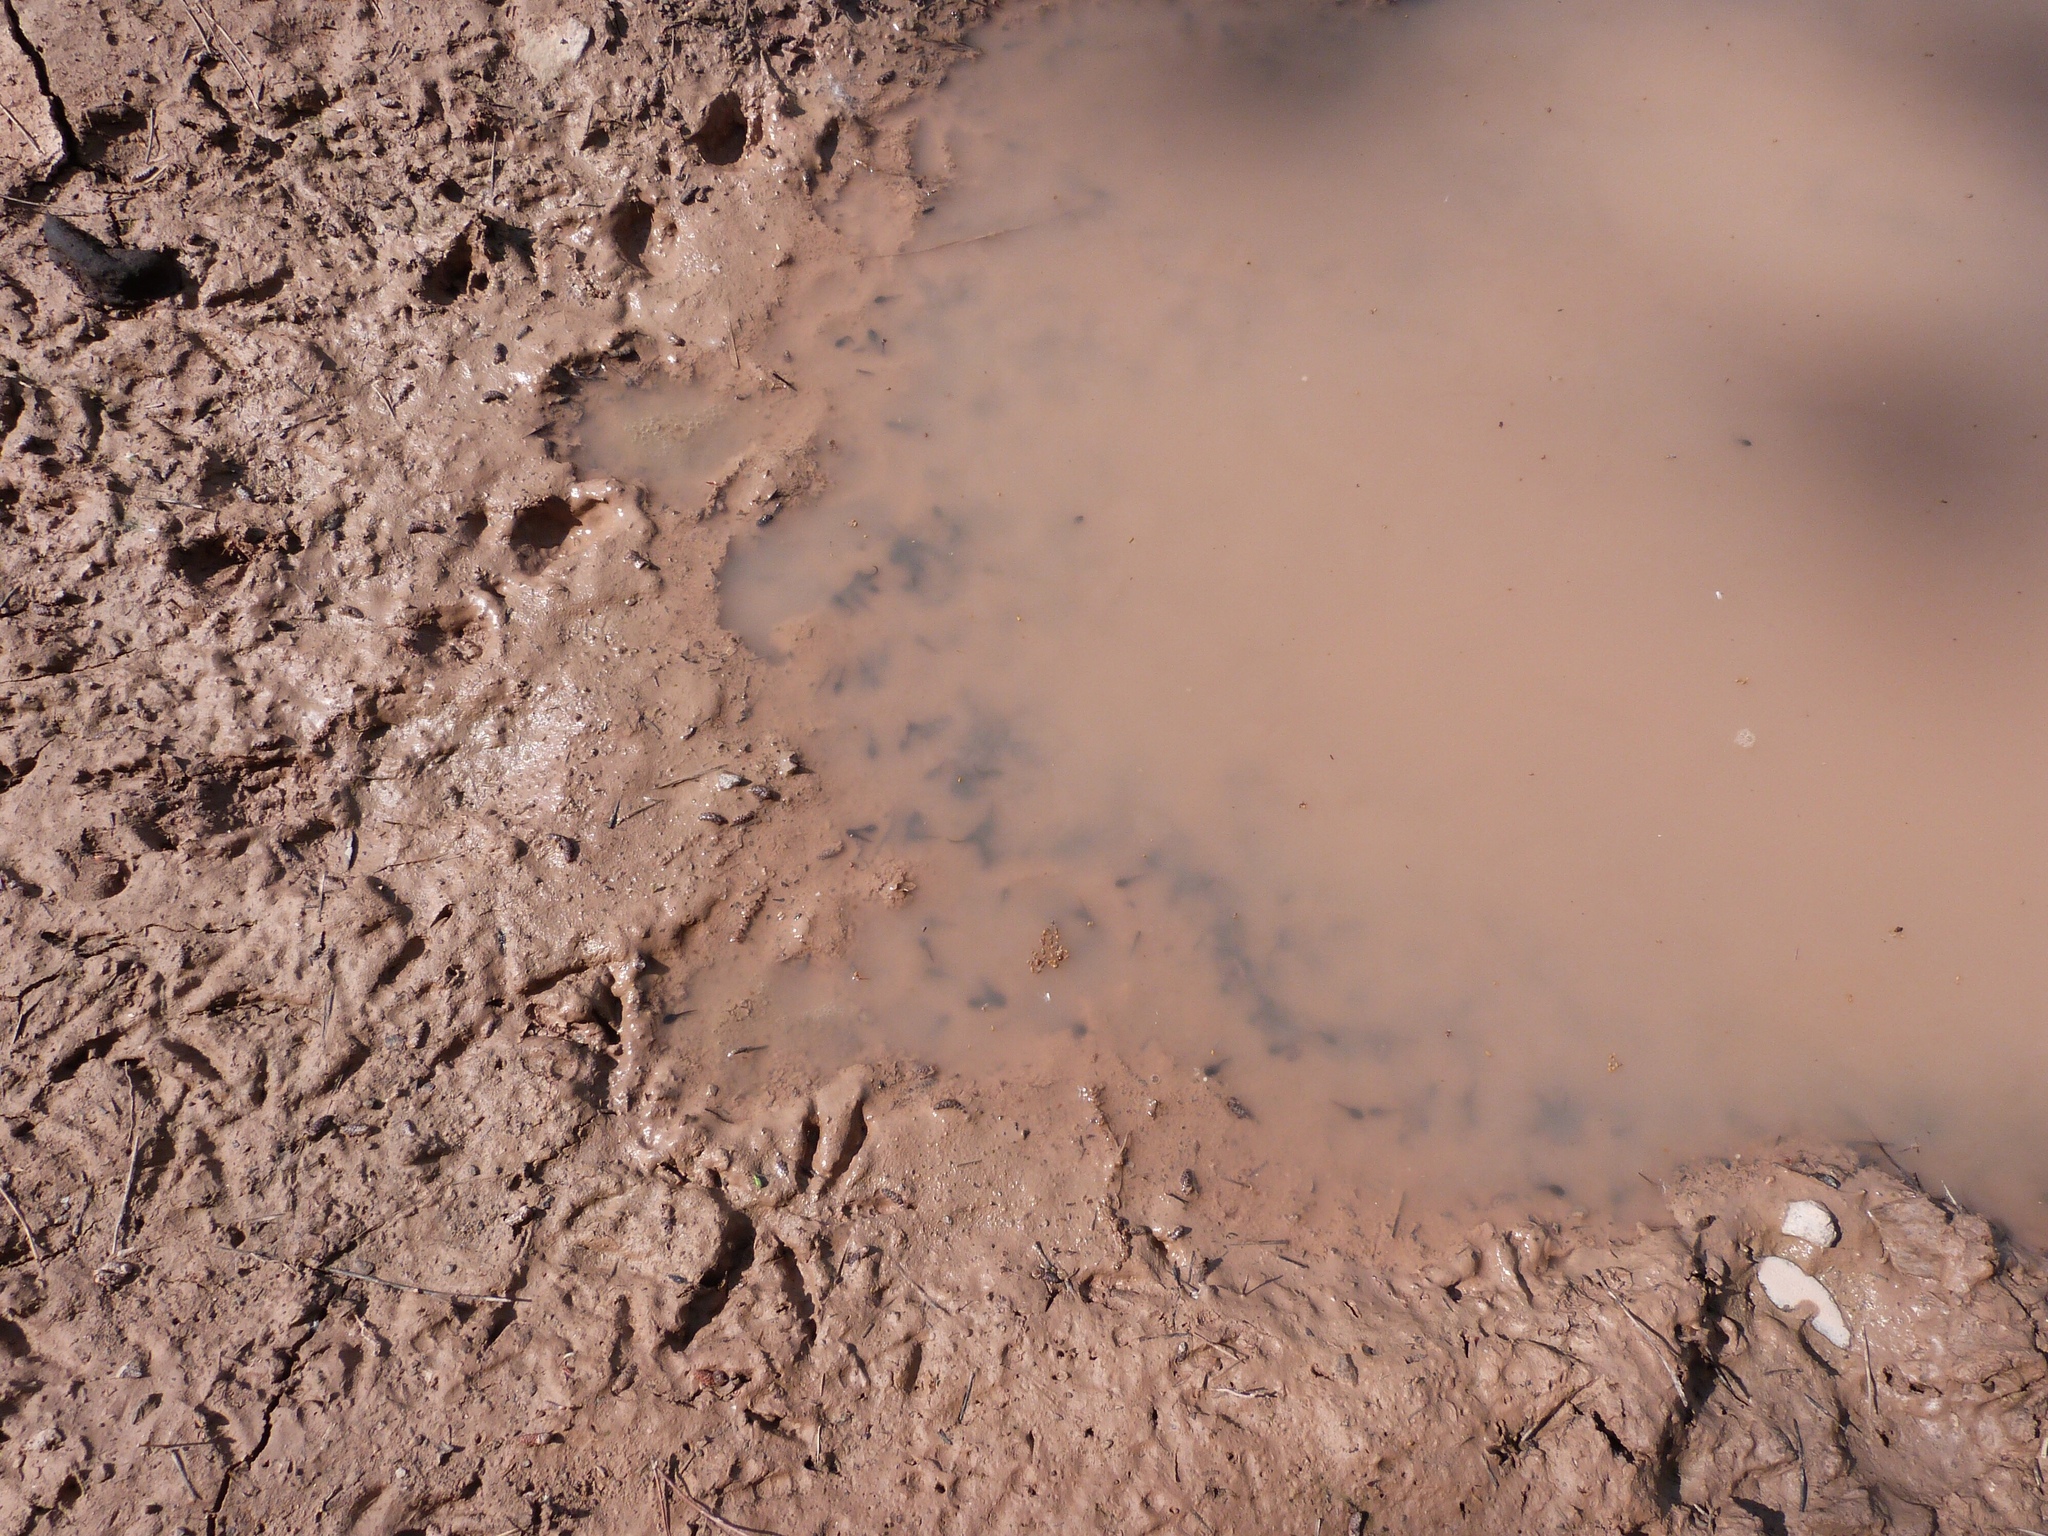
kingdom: Animalia
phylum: Chordata
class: Amphibia
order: Anura
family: Bufonidae
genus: Epidalea
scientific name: Epidalea calamita
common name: Natterjack toad
